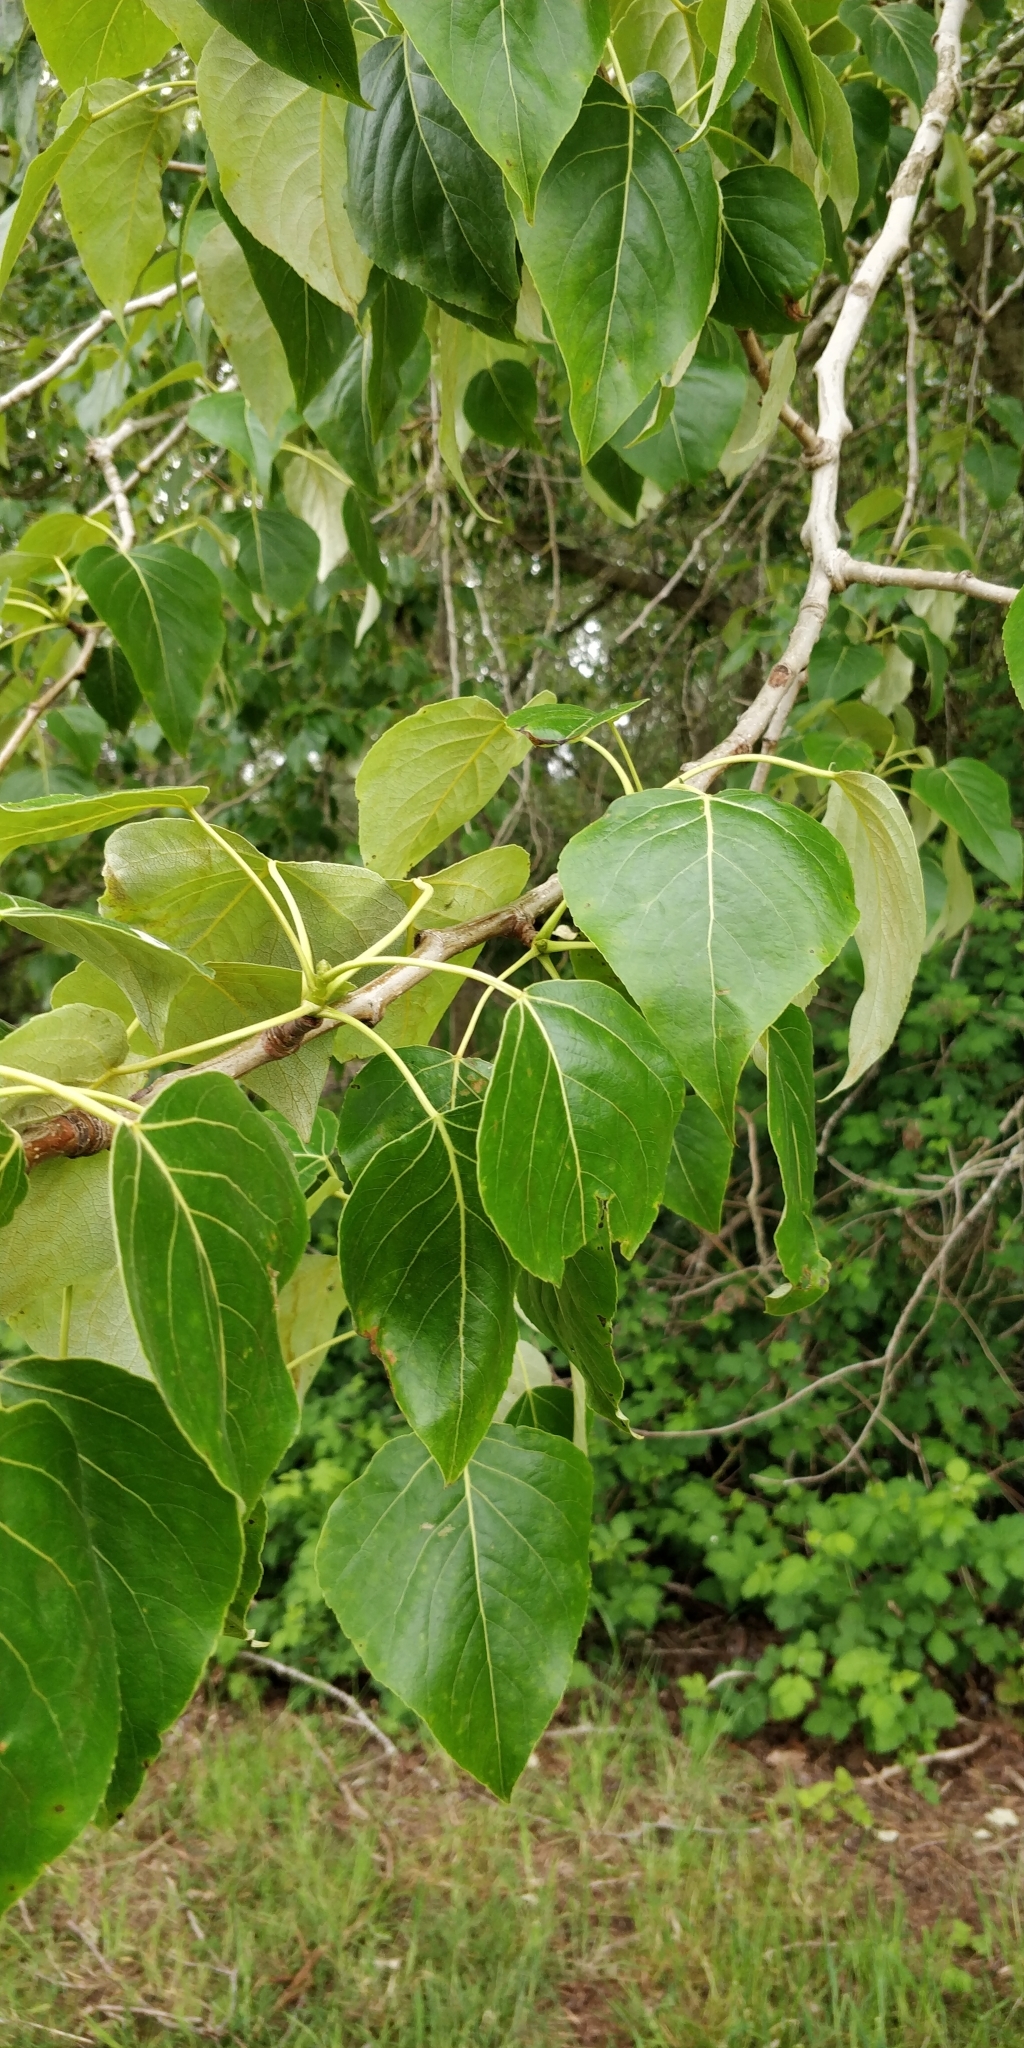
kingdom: Plantae
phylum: Tracheophyta
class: Magnoliopsida
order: Malpighiales
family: Salicaceae
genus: Populus
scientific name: Populus trichocarpa
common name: Black cottonwood
